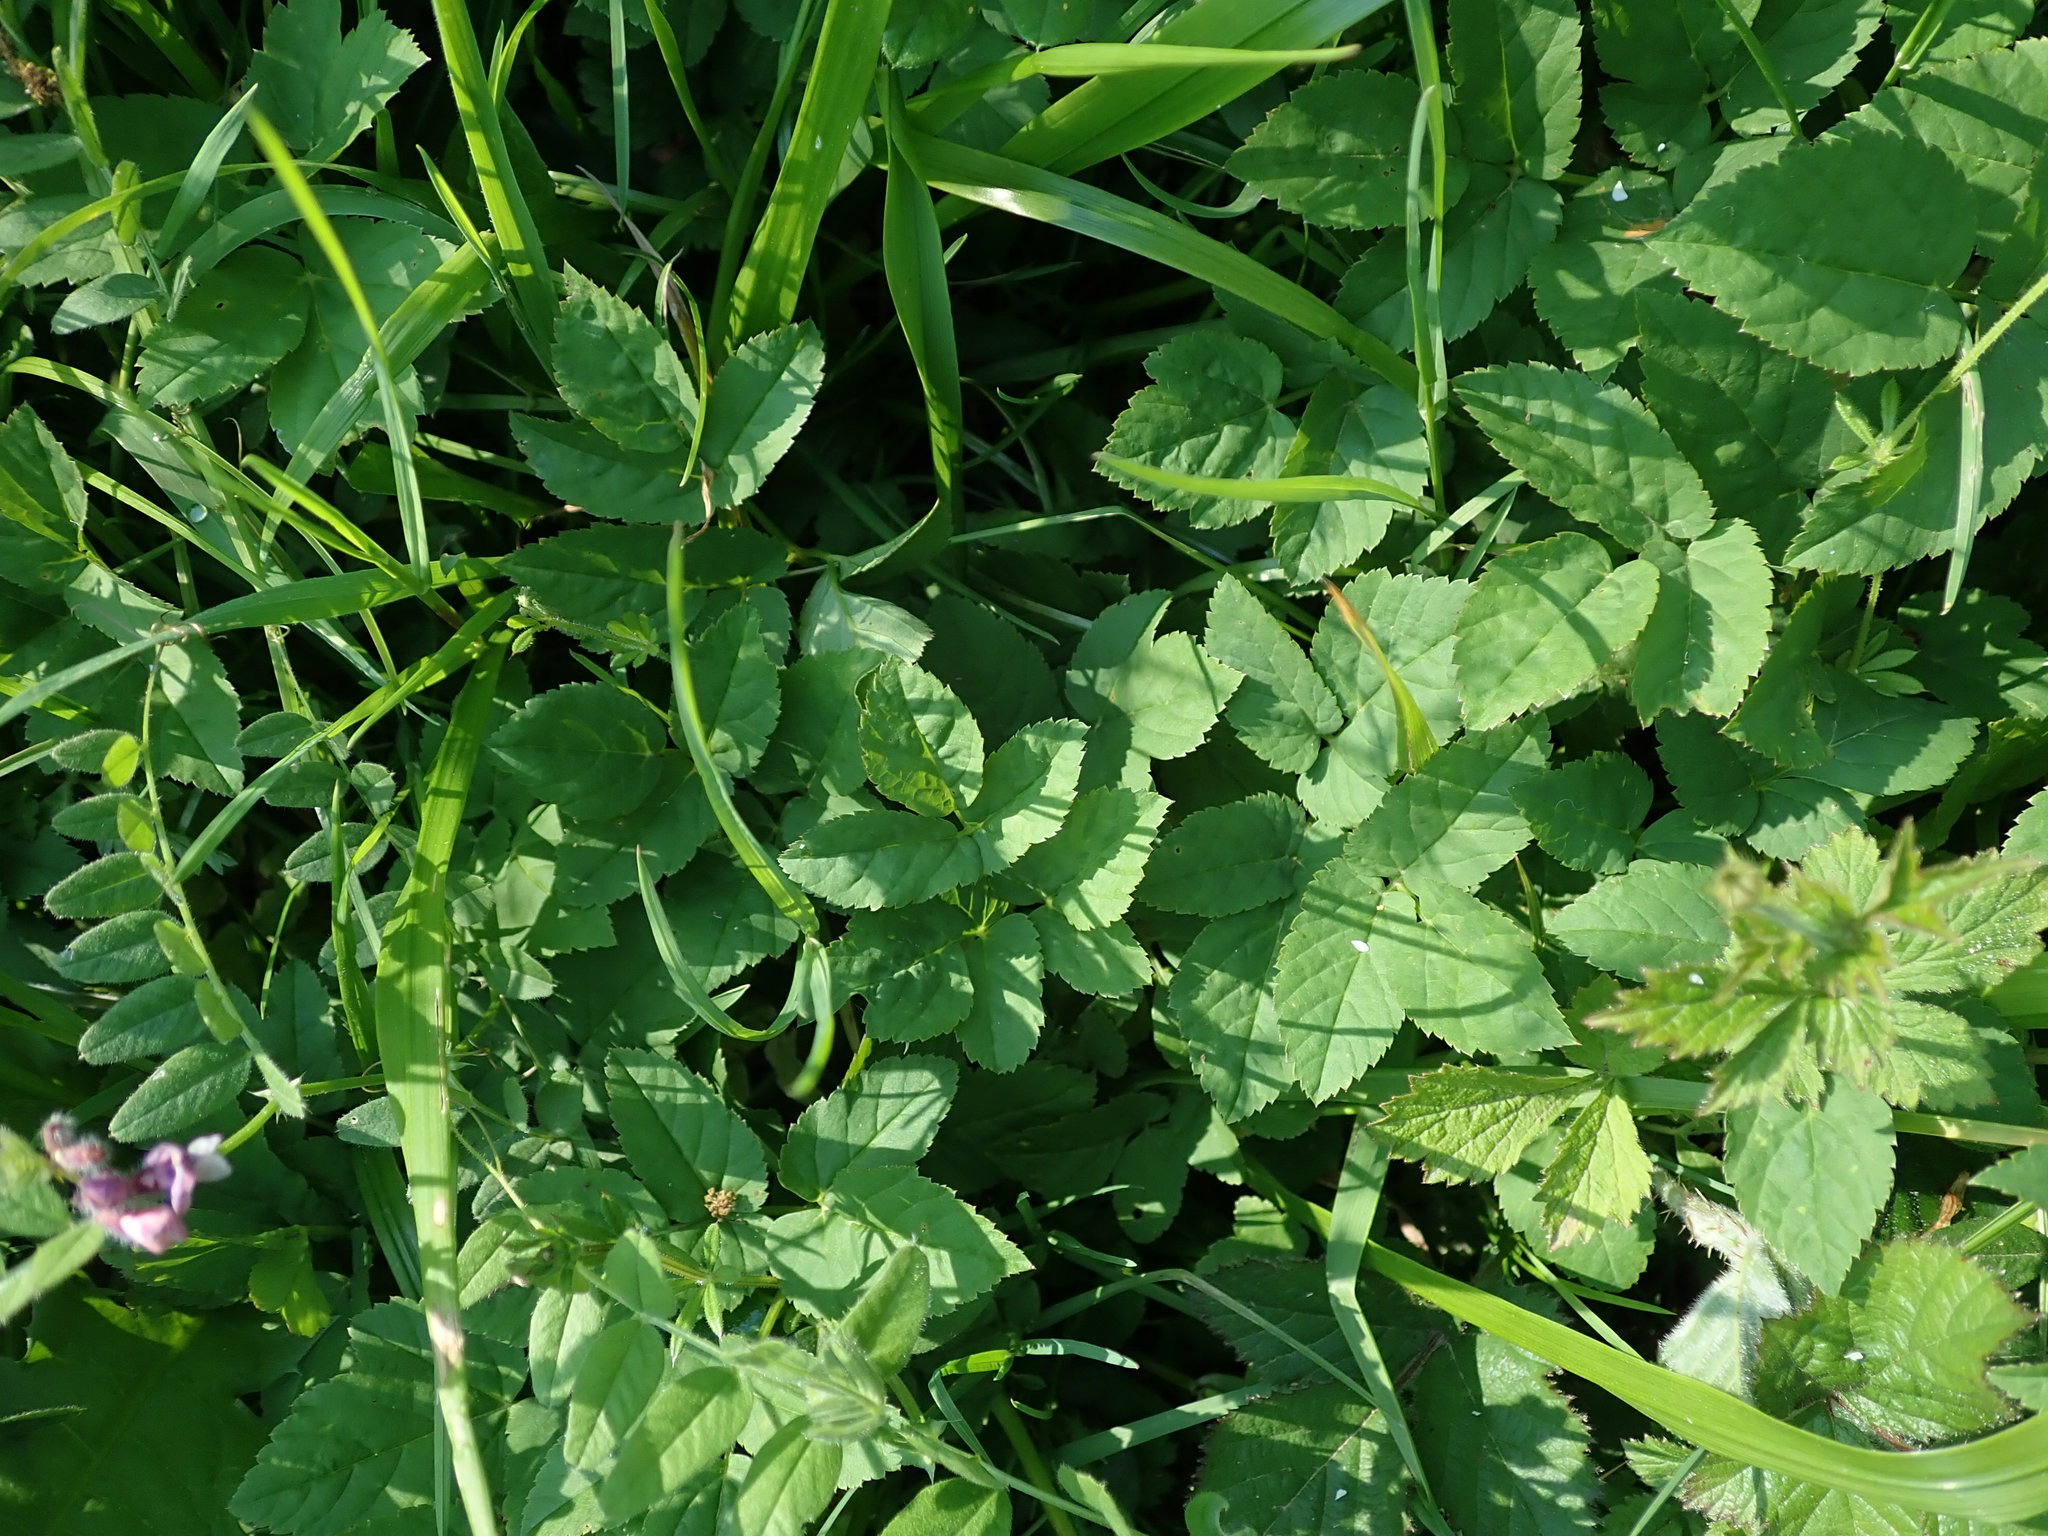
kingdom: Plantae
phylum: Tracheophyta
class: Magnoliopsida
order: Apiales
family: Apiaceae
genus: Aegopodium
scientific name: Aegopodium podagraria
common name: Ground-elder
